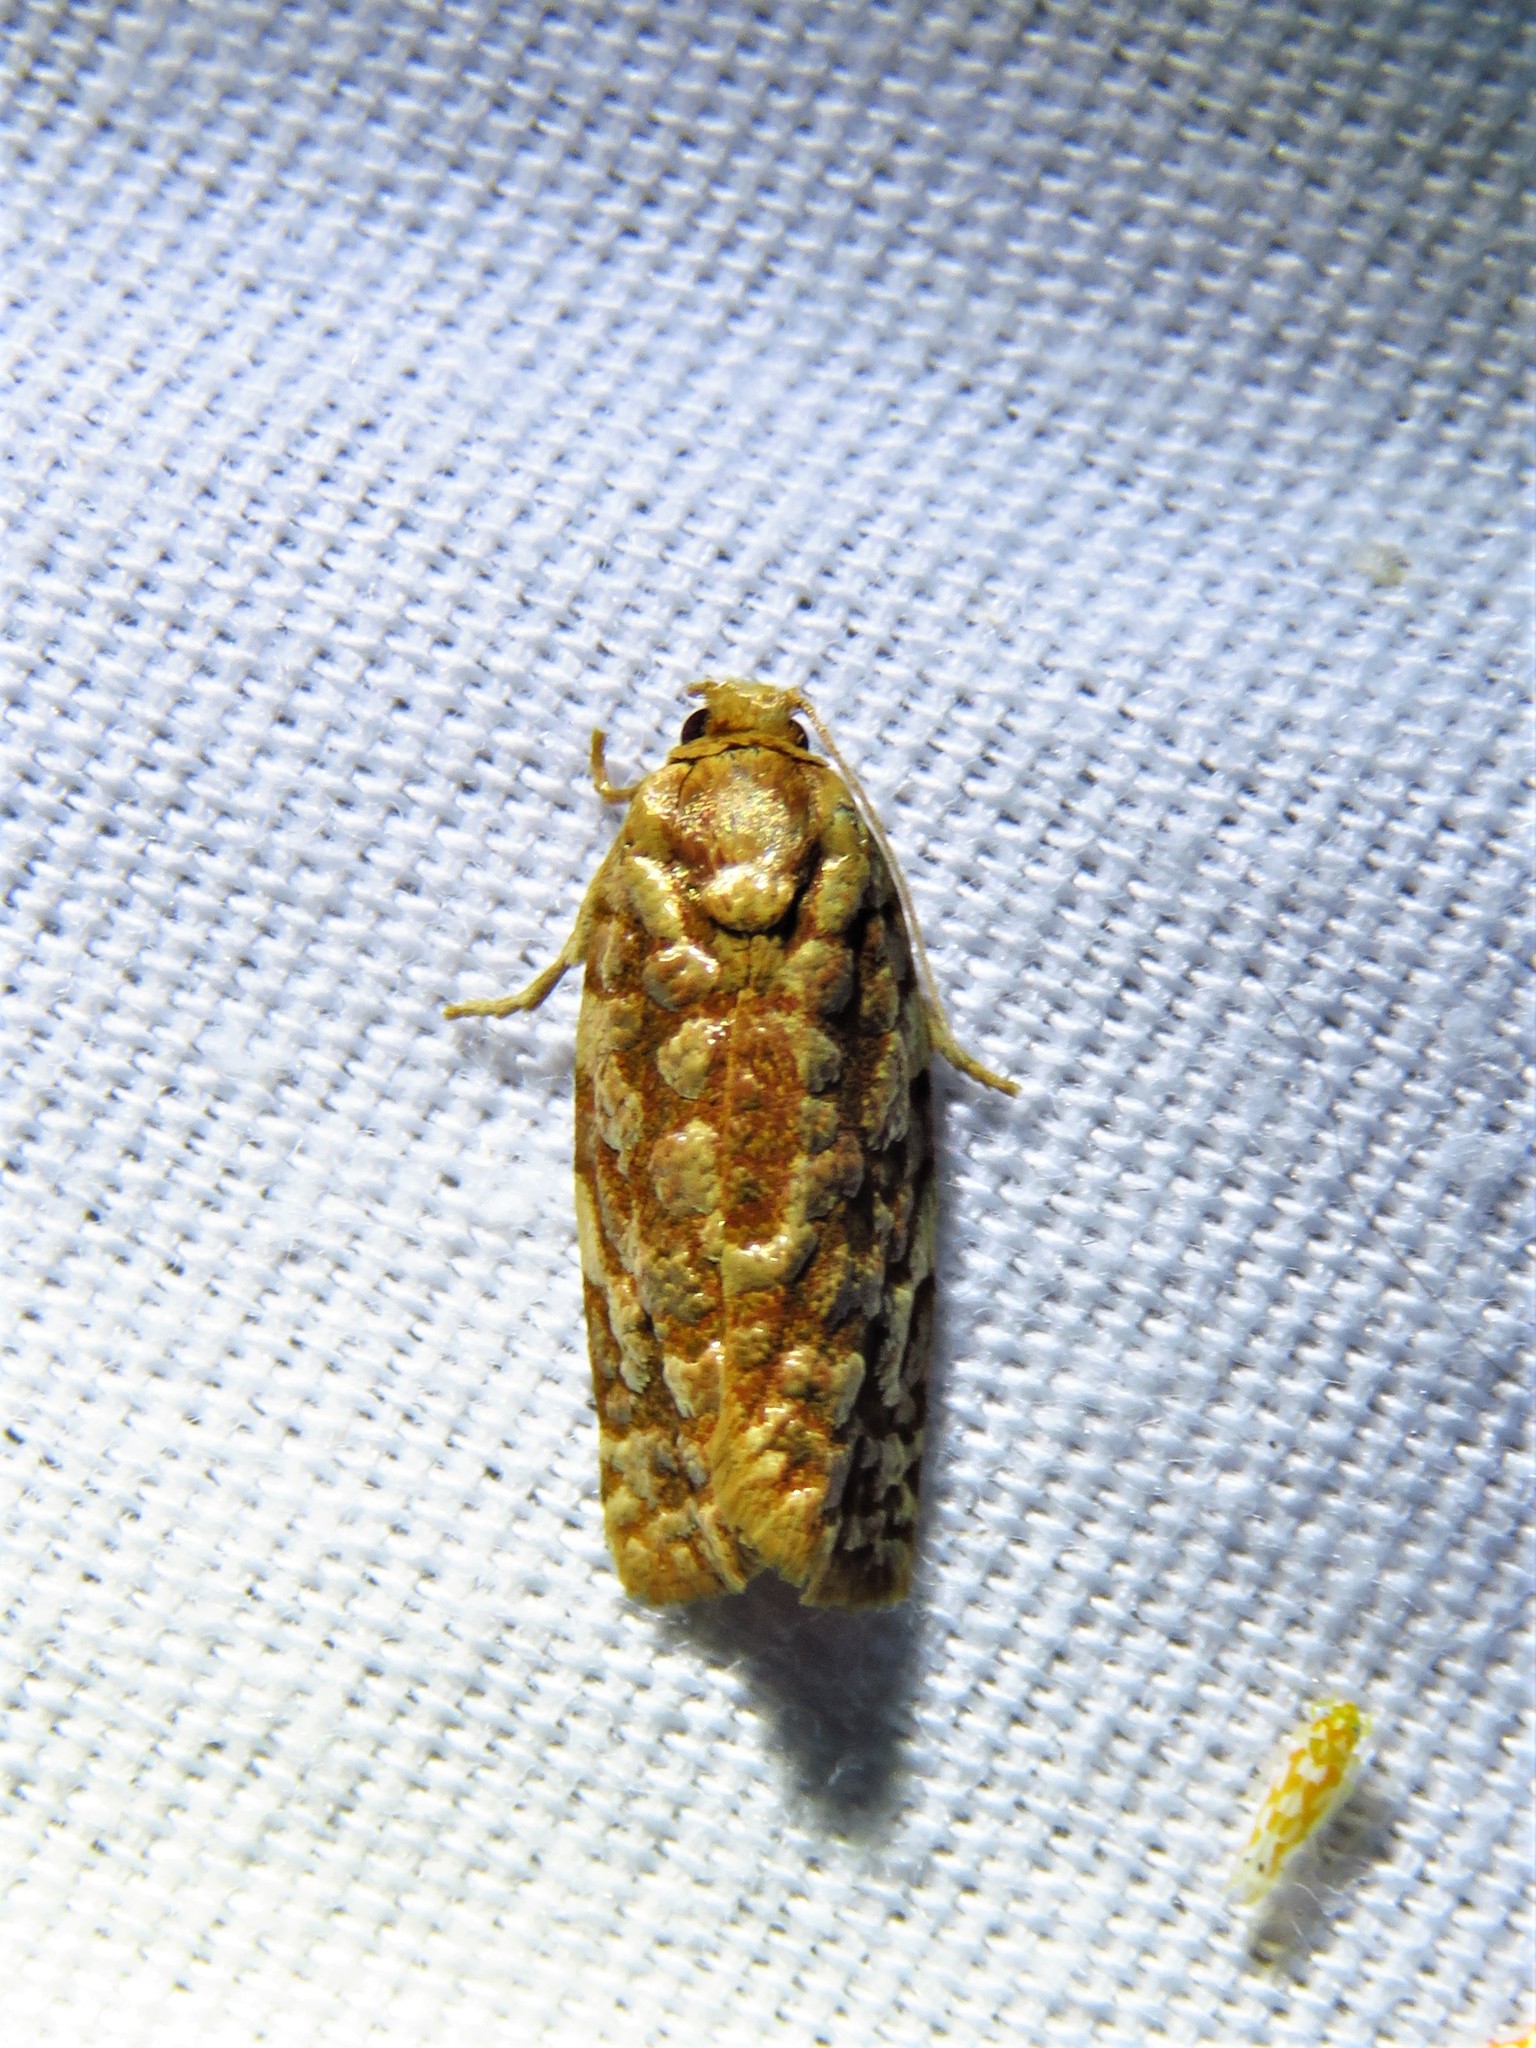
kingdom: Animalia
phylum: Arthropoda
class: Insecta
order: Lepidoptera
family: Tortricidae
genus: Choristoneura
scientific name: Choristoneura houstonana
